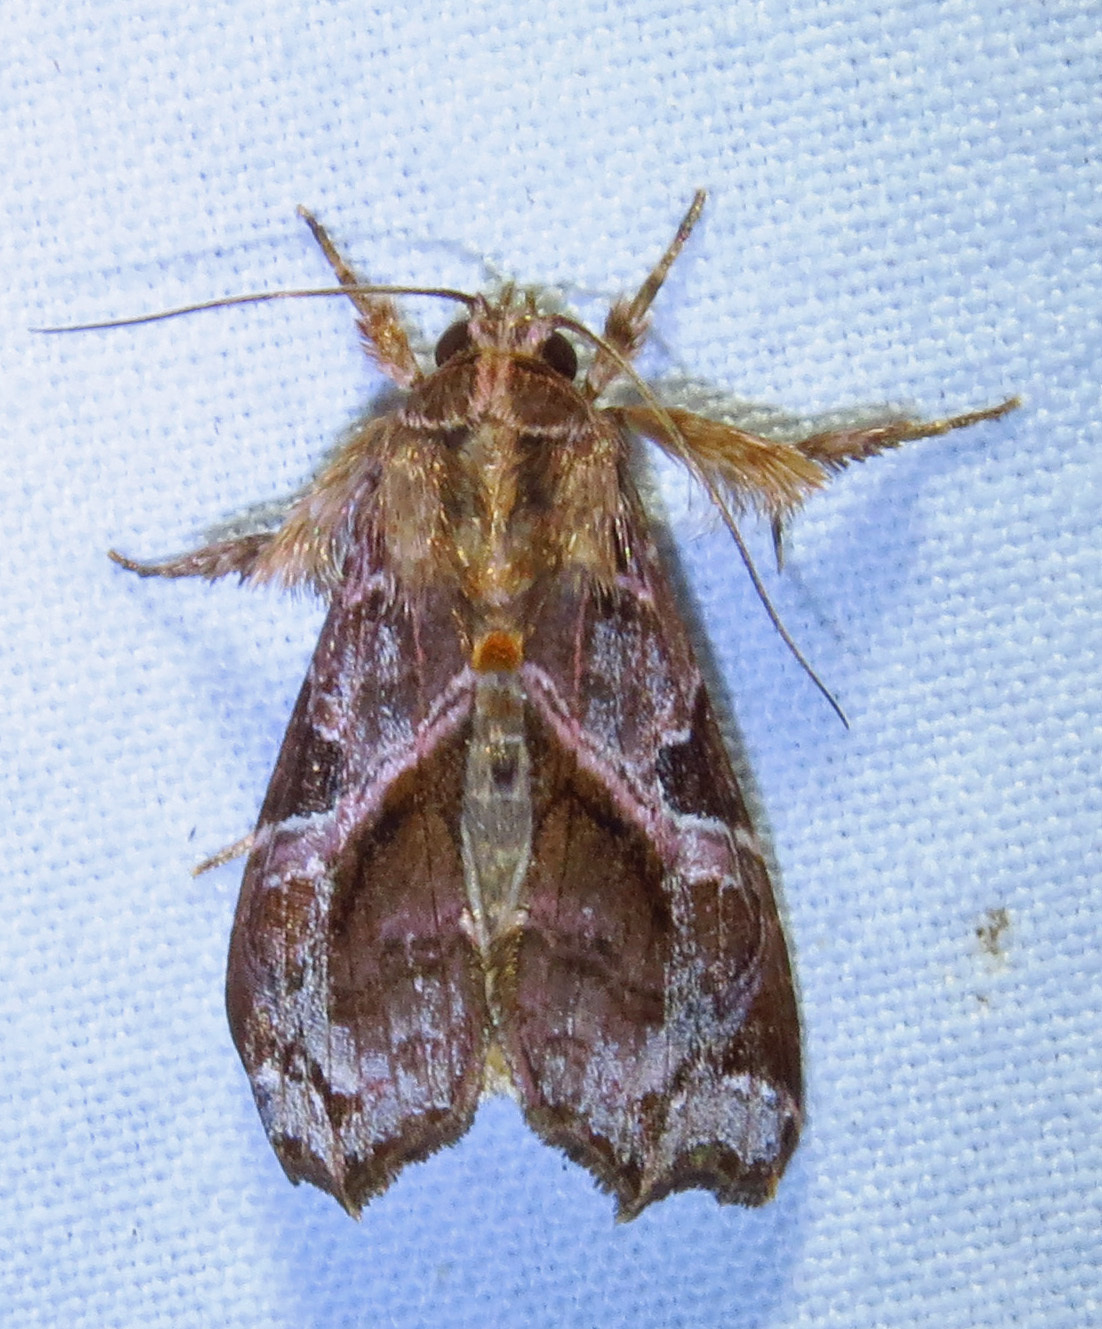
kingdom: Animalia
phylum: Arthropoda
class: Insecta
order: Lepidoptera
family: Noctuidae
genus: Callopistria
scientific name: Callopistria floridensis
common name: Florida fern moth
